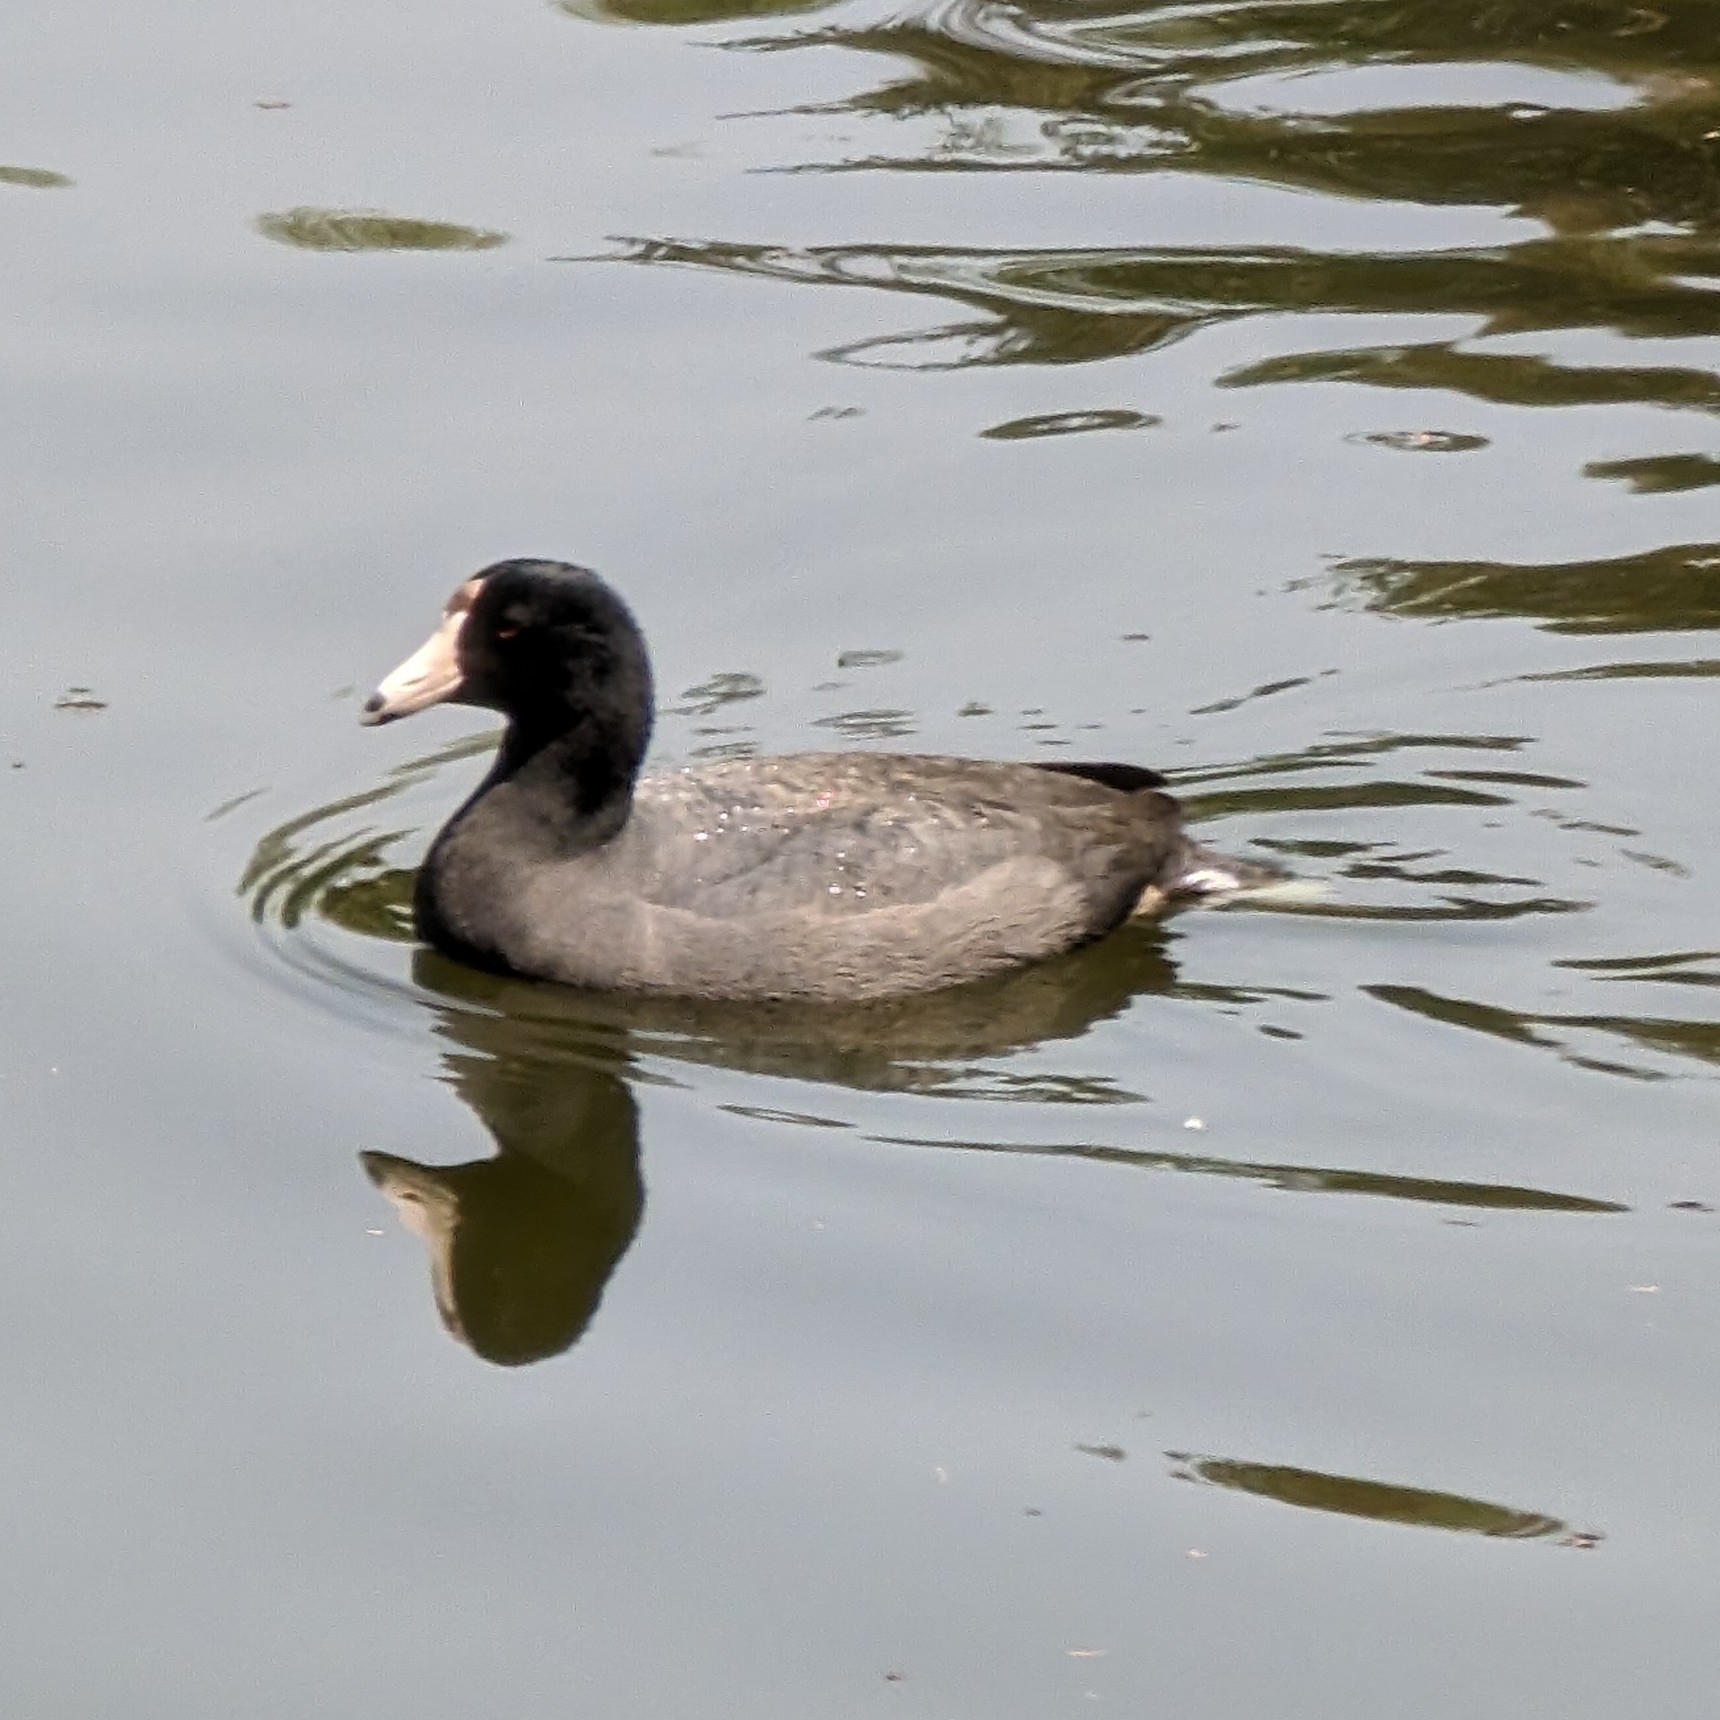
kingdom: Animalia
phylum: Chordata
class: Aves
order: Gruiformes
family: Rallidae
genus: Fulica
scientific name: Fulica americana
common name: American coot
